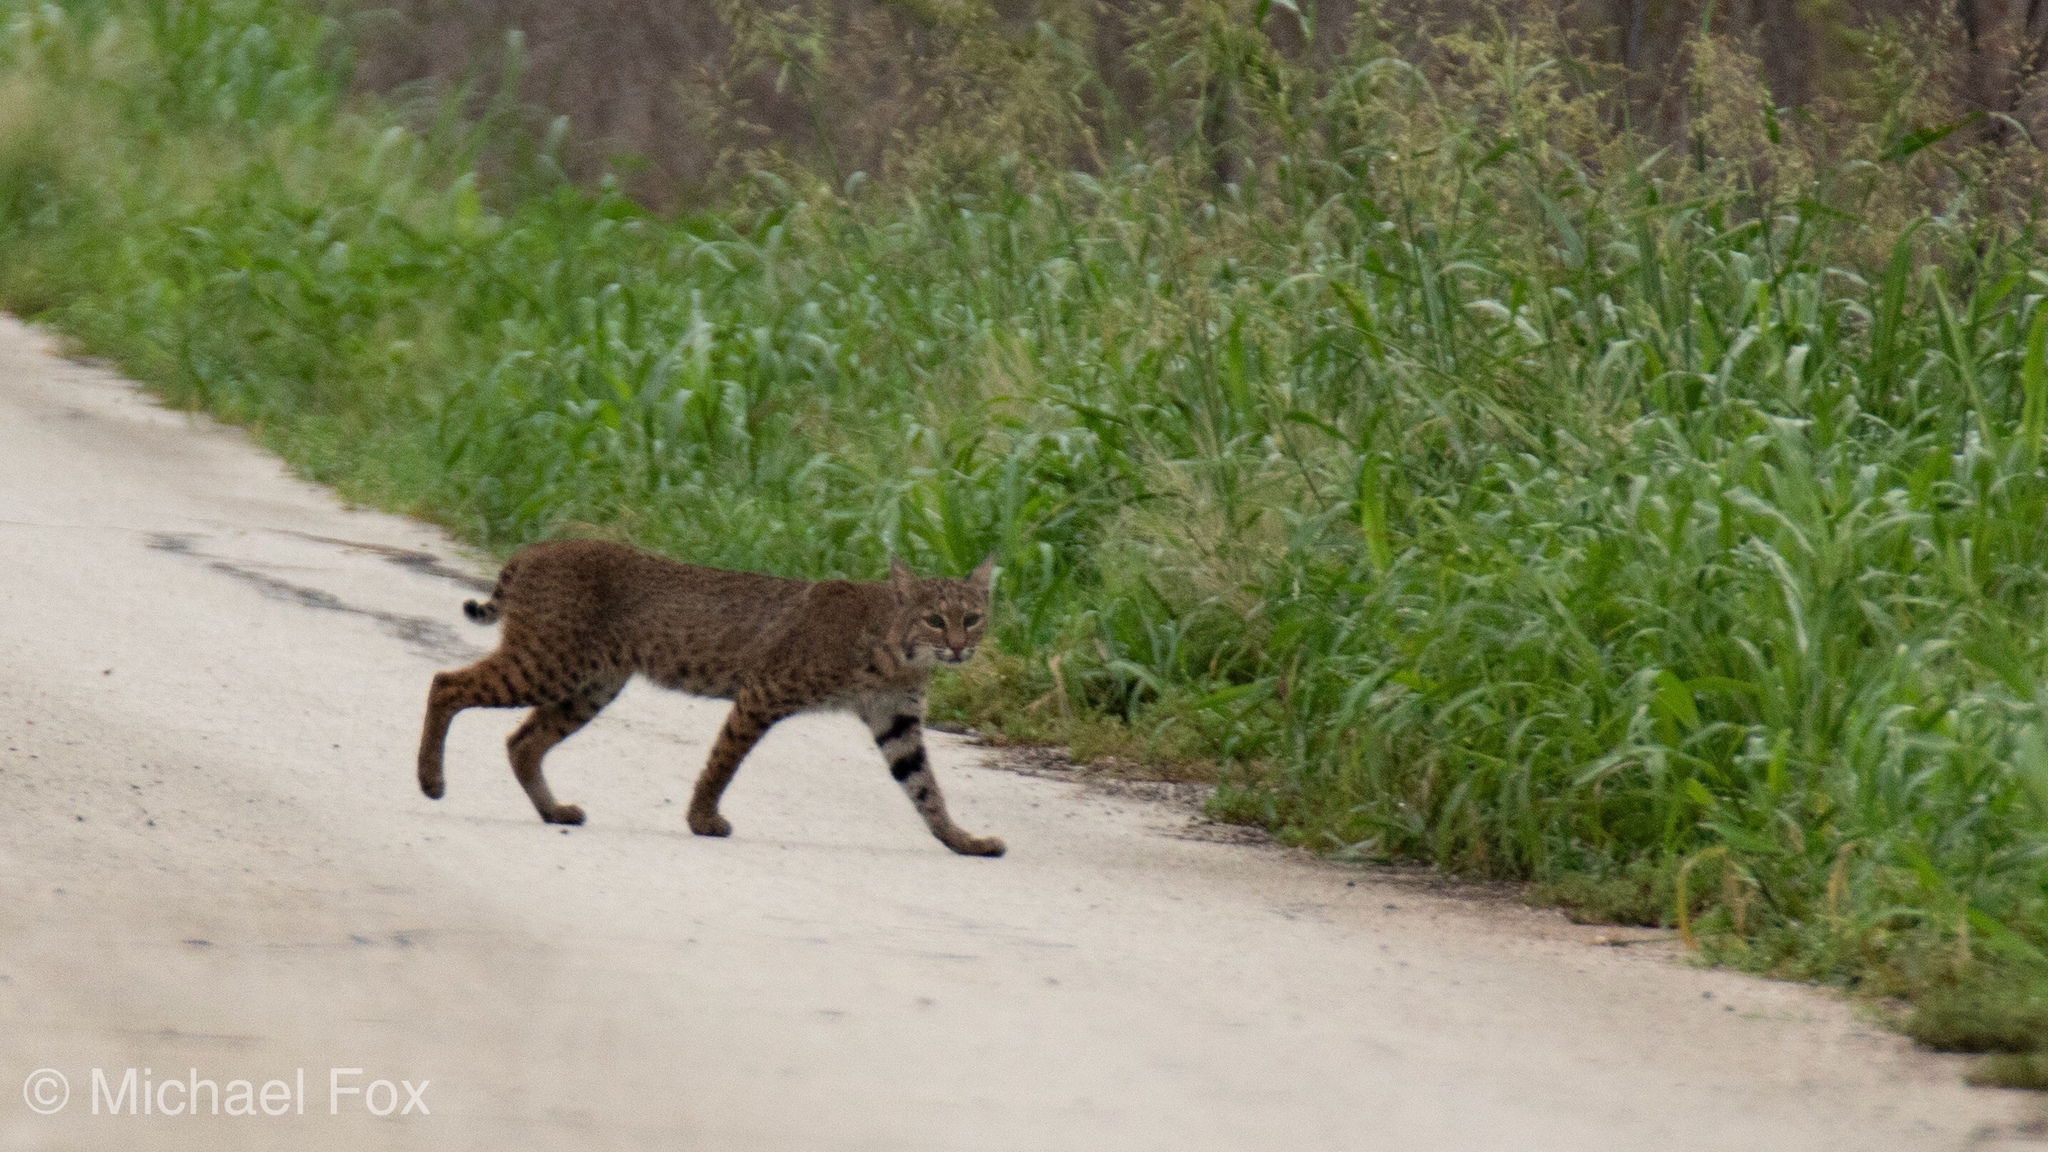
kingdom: Animalia
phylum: Chordata
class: Mammalia
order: Carnivora
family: Felidae
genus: Lynx
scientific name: Lynx rufus
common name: Bobcat
